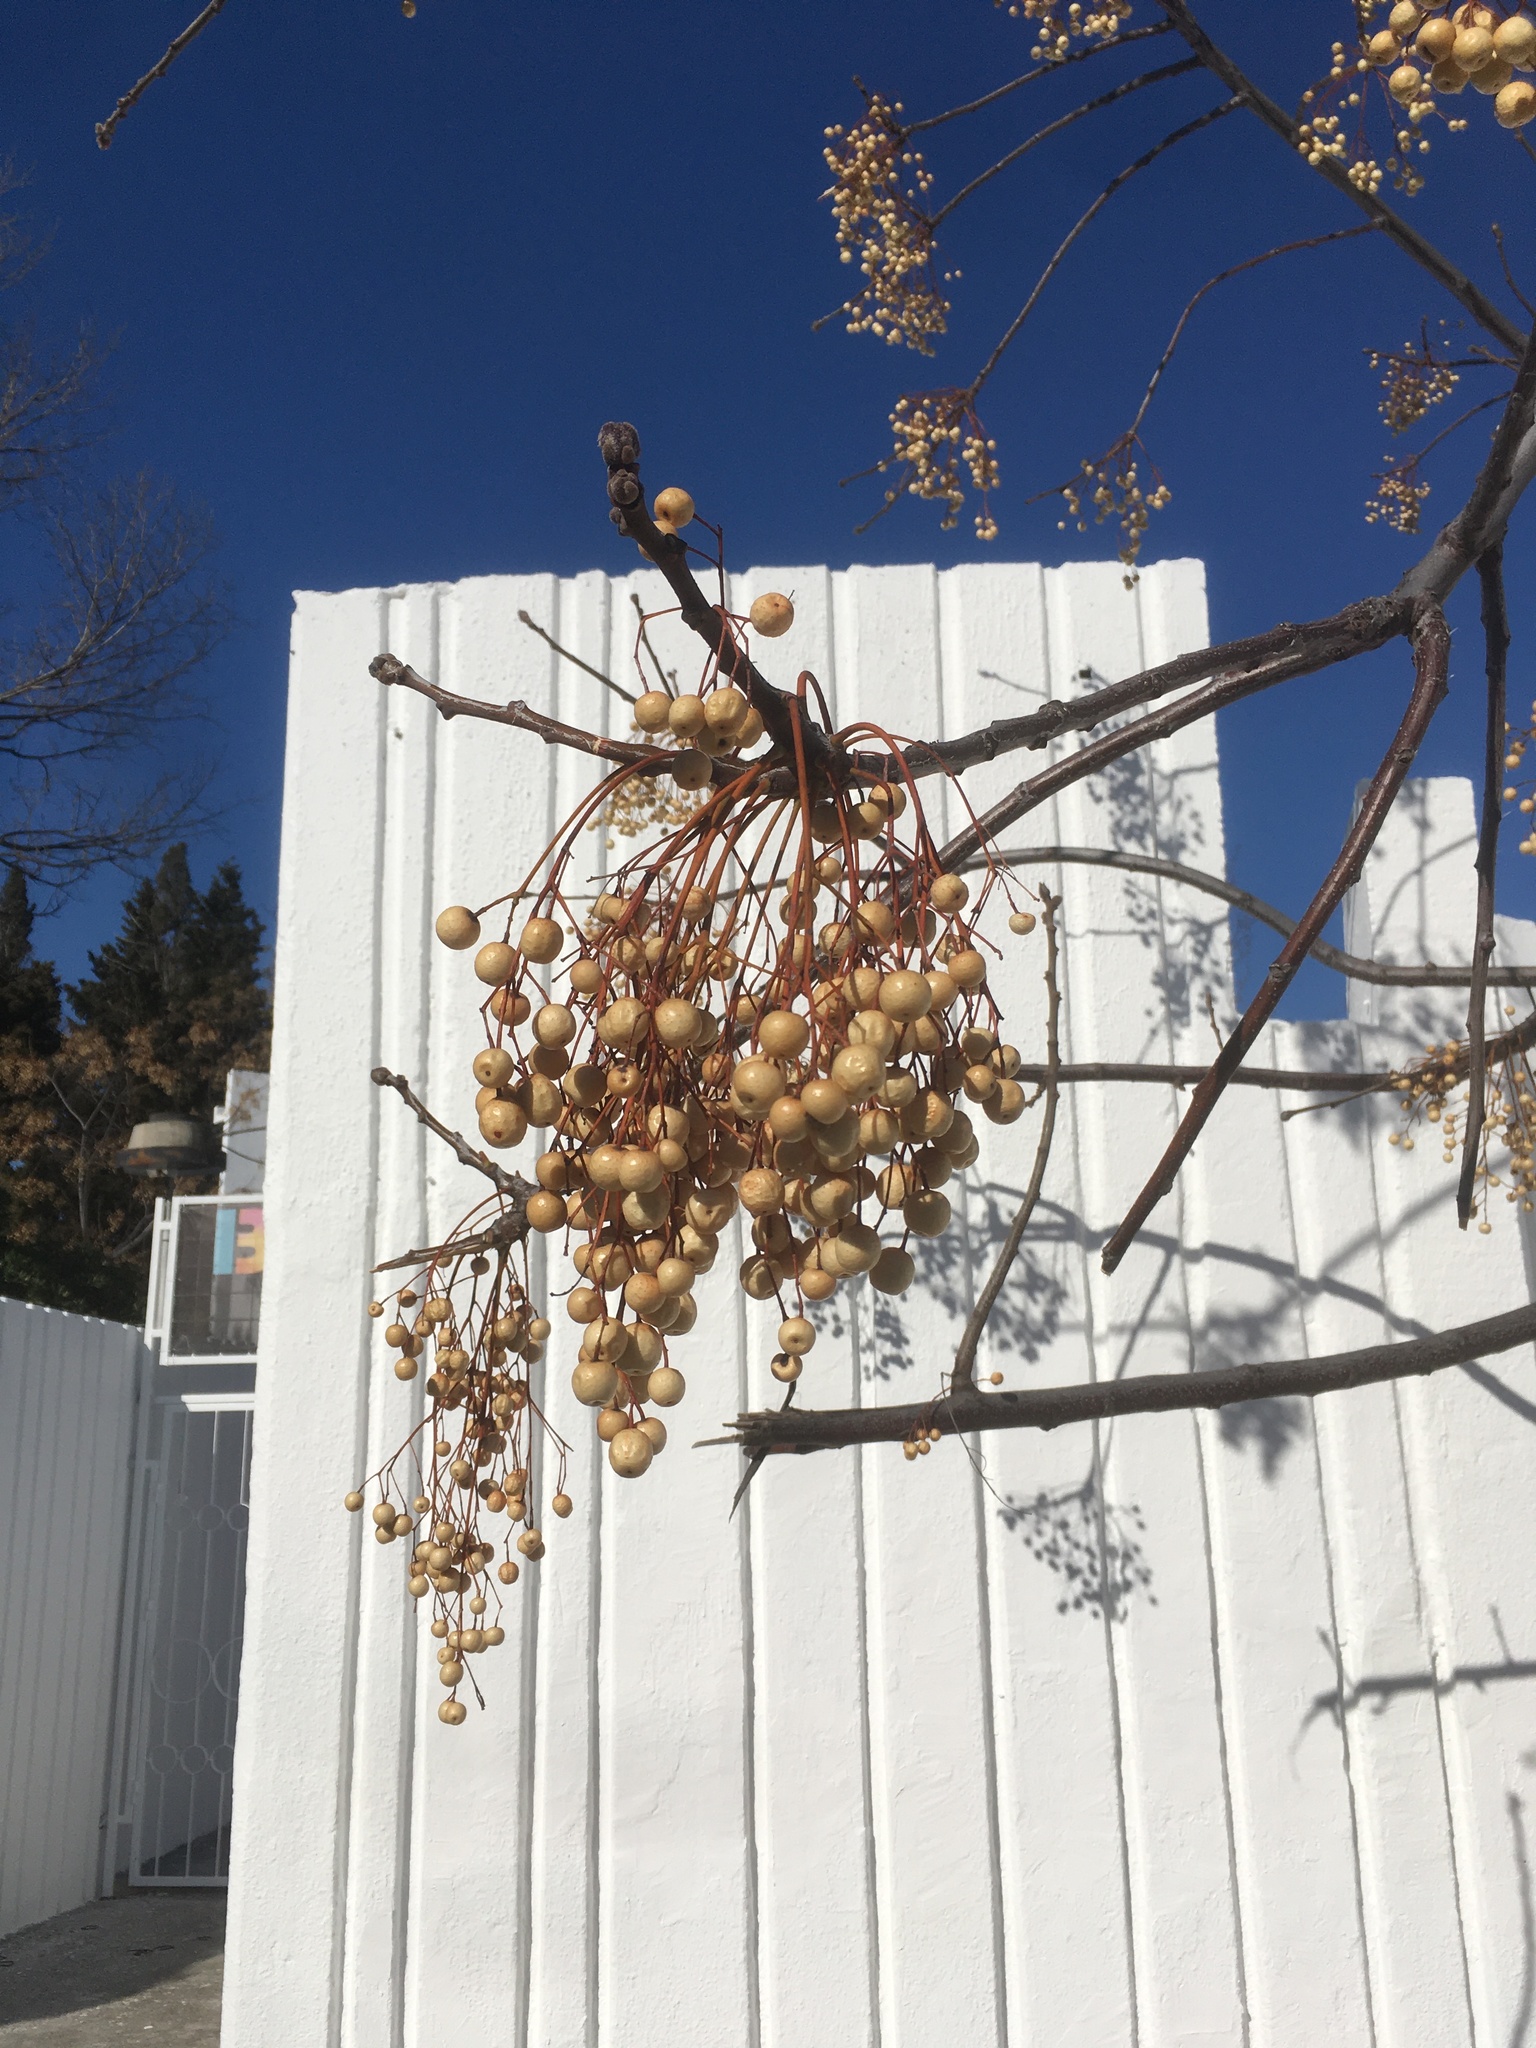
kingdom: Plantae
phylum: Tracheophyta
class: Magnoliopsida
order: Sapindales
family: Meliaceae
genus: Melia
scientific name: Melia azedarach
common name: Chinaberrytree
